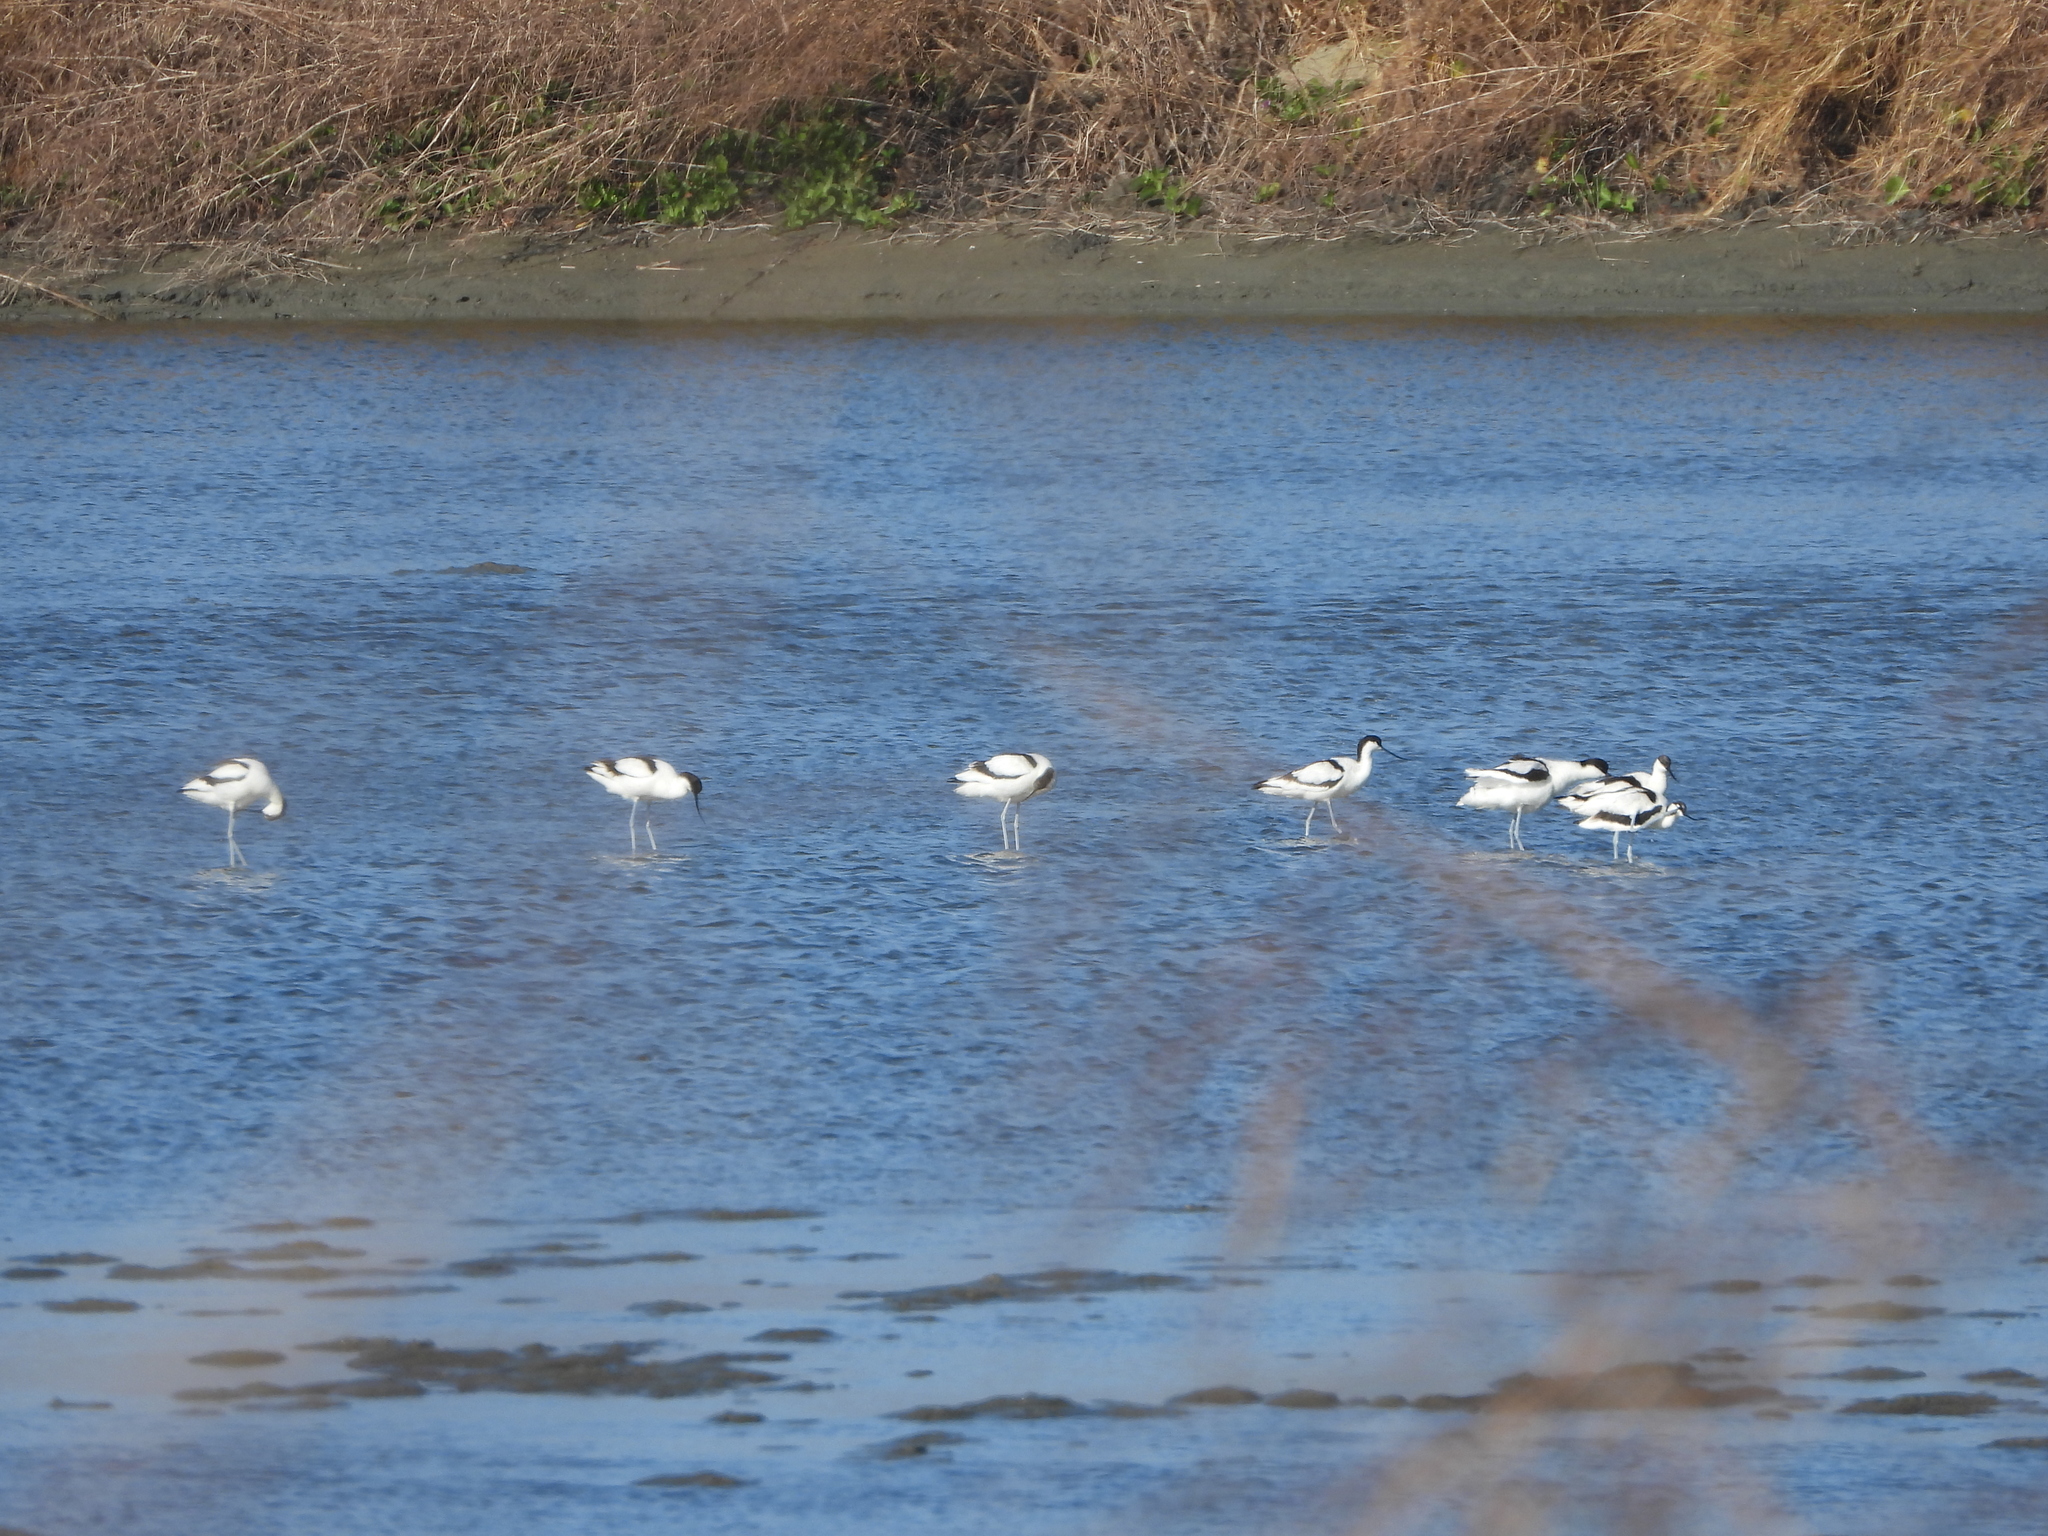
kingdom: Animalia
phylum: Chordata
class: Aves
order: Charadriiformes
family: Recurvirostridae
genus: Recurvirostra
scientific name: Recurvirostra avosetta
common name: Pied avocet
